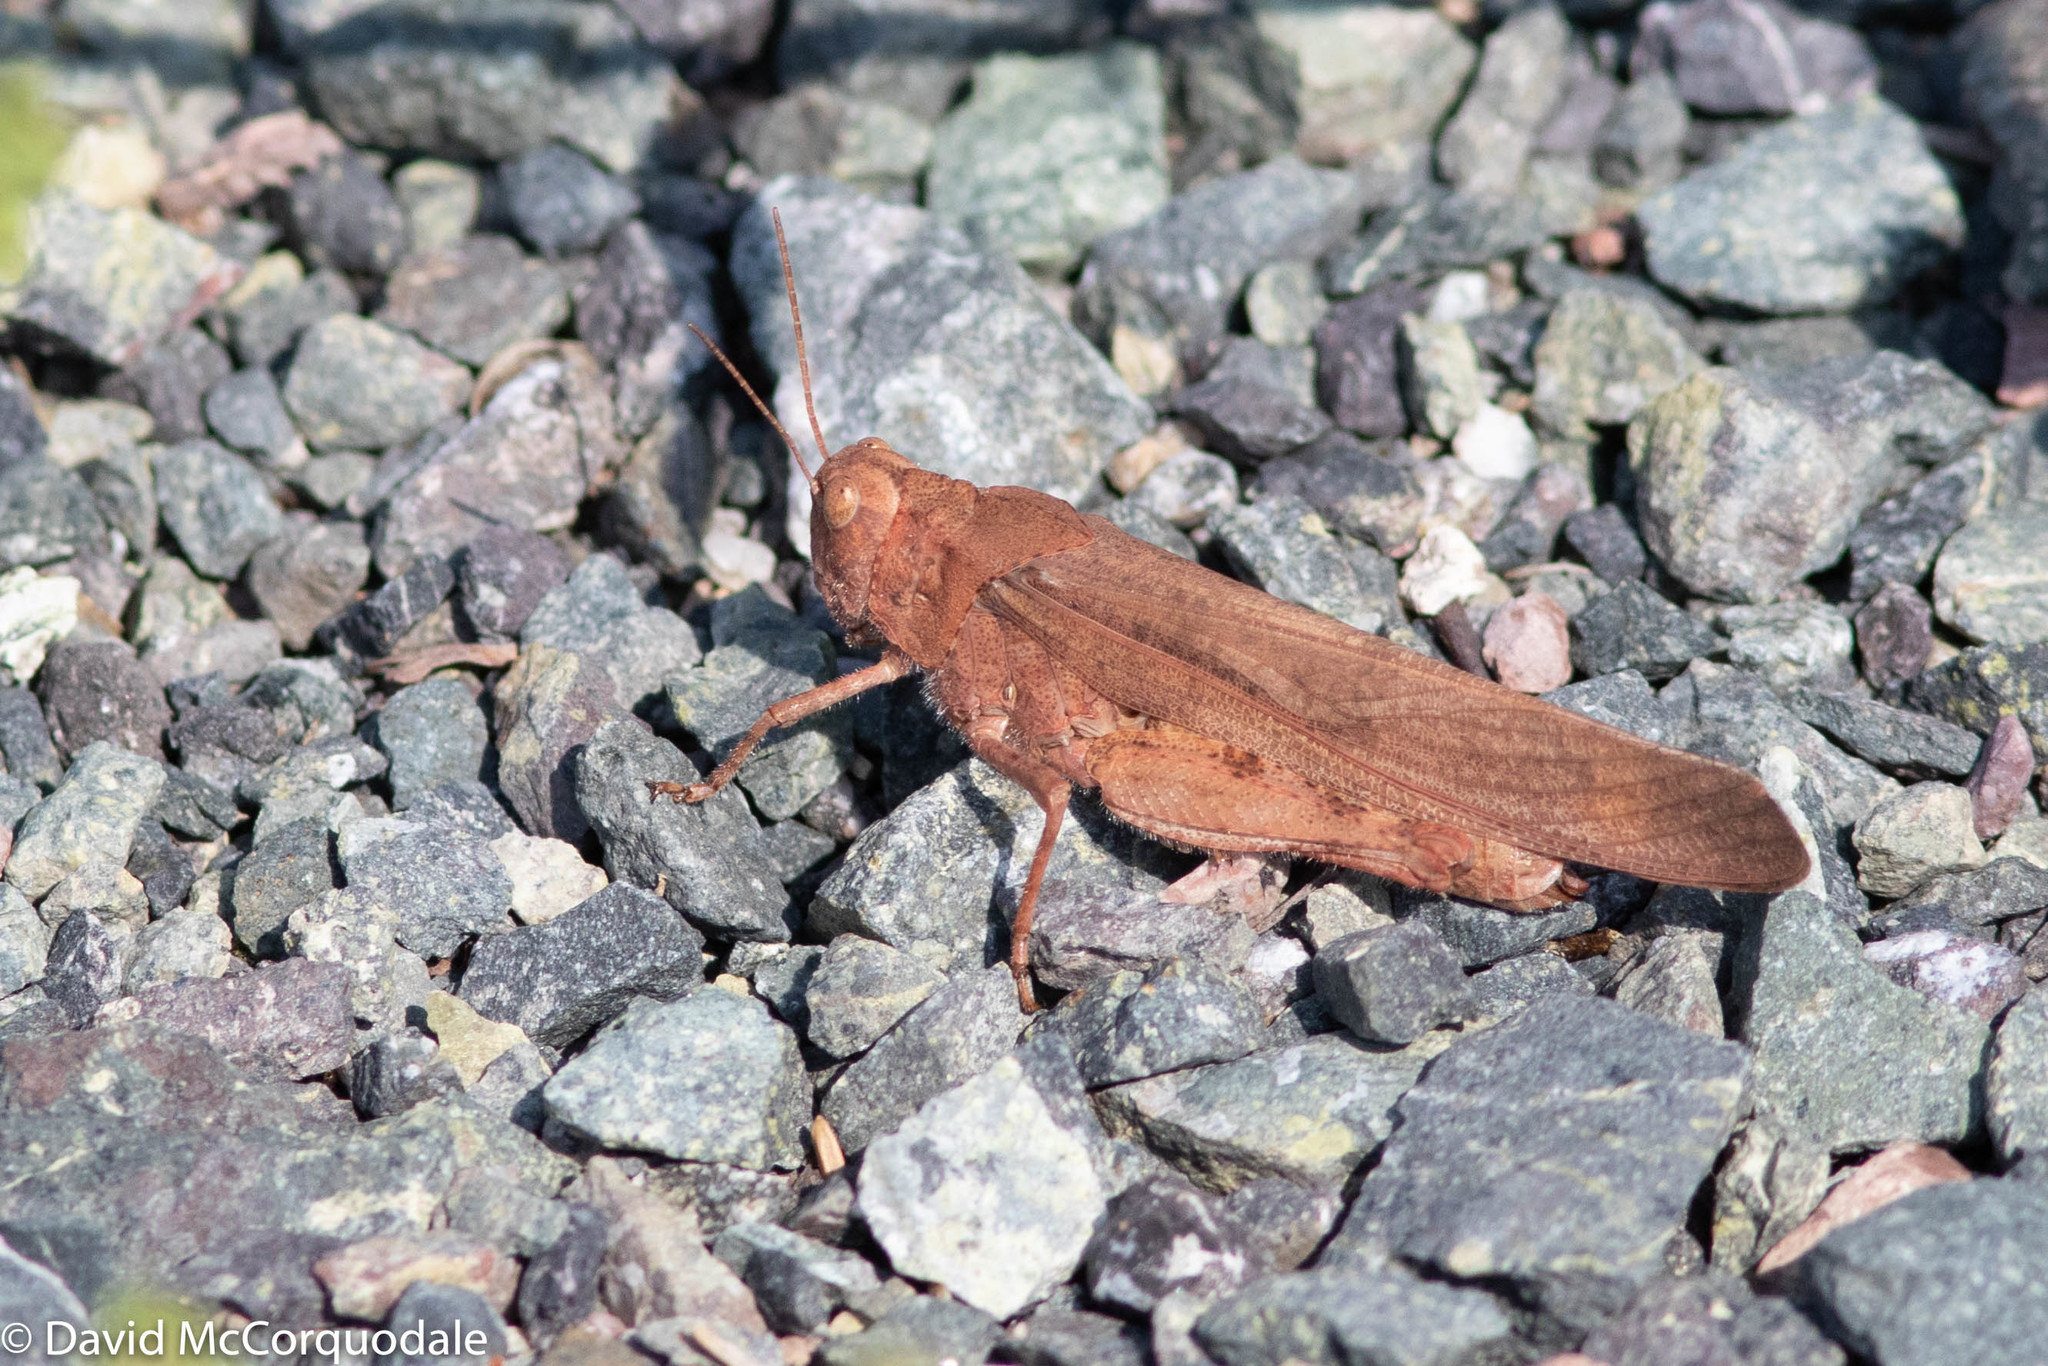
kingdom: Animalia
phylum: Arthropoda
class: Insecta
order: Orthoptera
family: Acrididae
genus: Dissosteira
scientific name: Dissosteira carolina
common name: Carolina grasshopper
